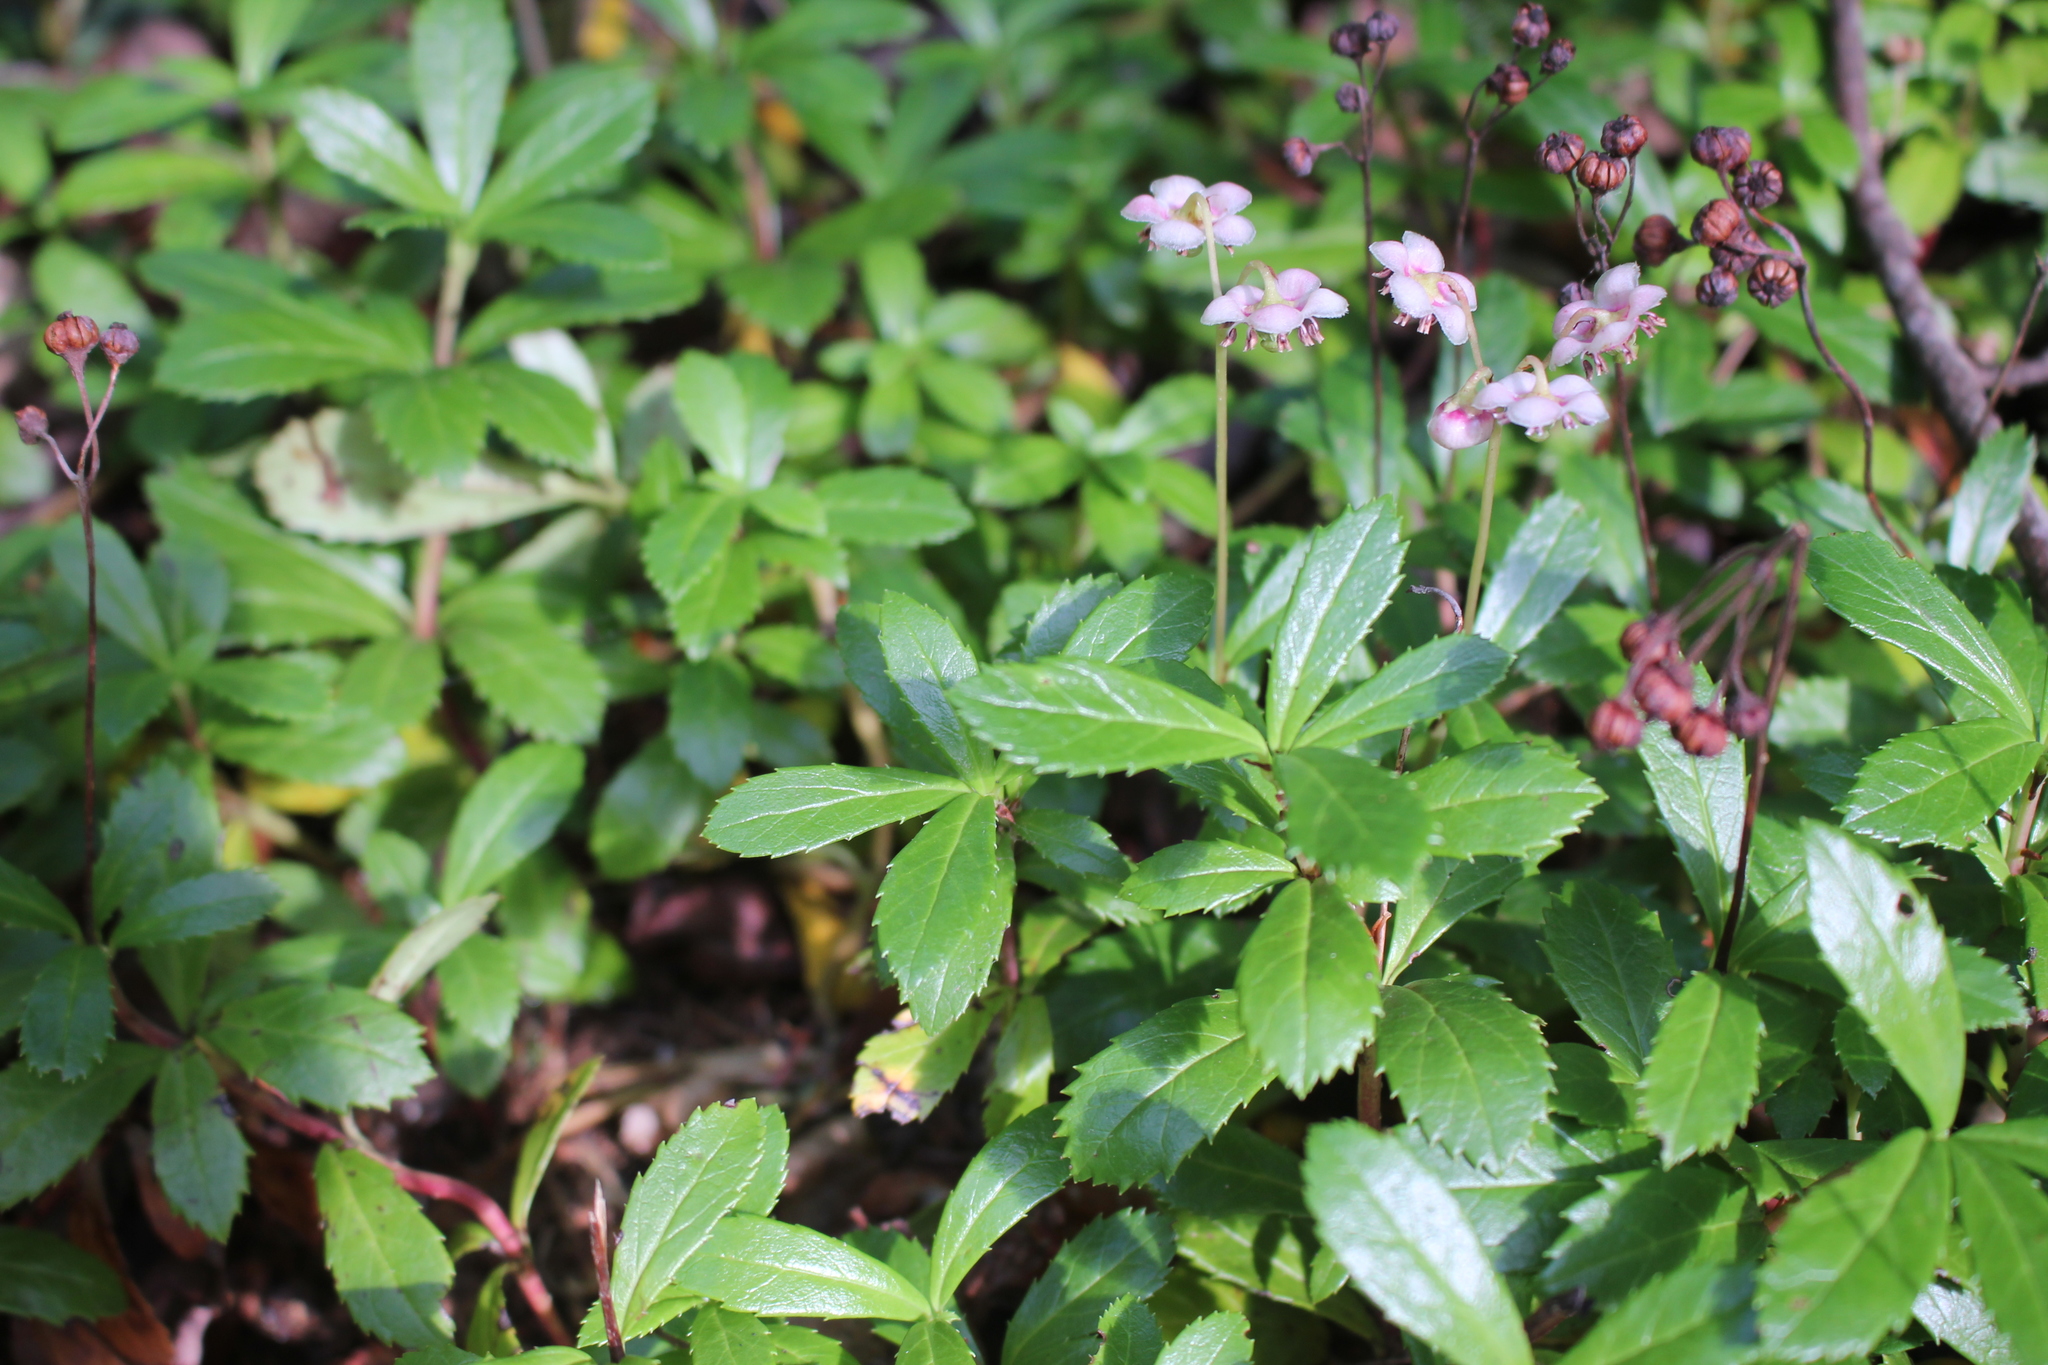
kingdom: Plantae
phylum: Tracheophyta
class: Magnoliopsida
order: Ericales
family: Ericaceae
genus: Chimaphila
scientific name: Chimaphila umbellata
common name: Pipsissewa
